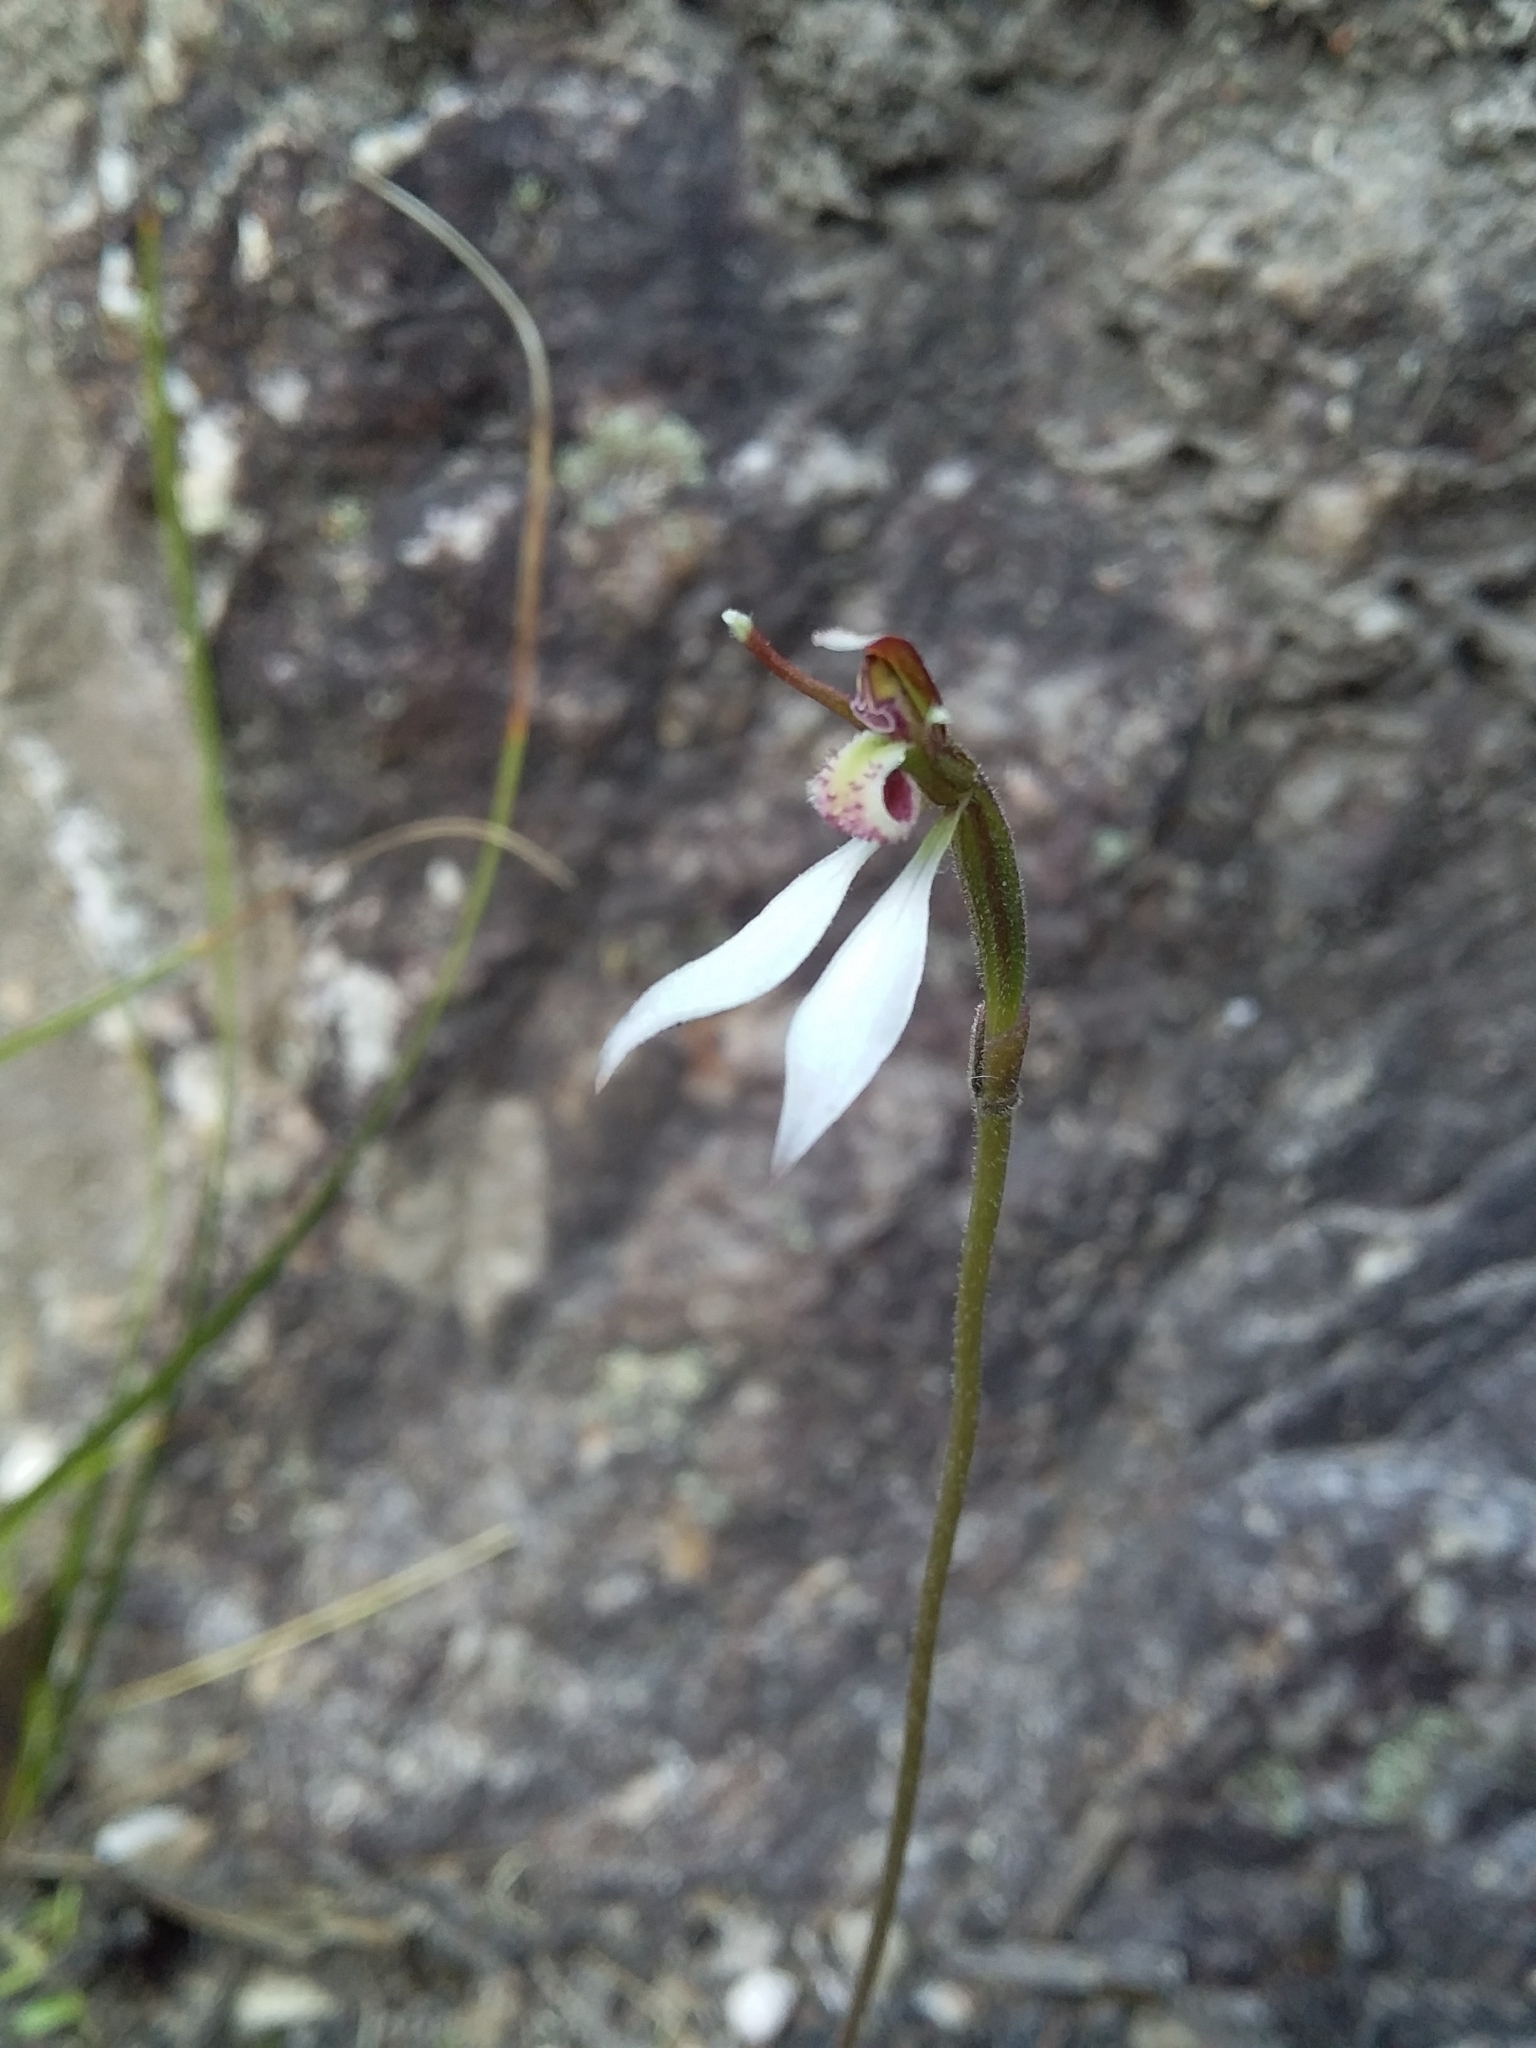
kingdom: Plantae
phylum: Tracheophyta
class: Liliopsida
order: Asparagales
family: Orchidaceae
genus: Eriochilus
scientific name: Eriochilus collinus
